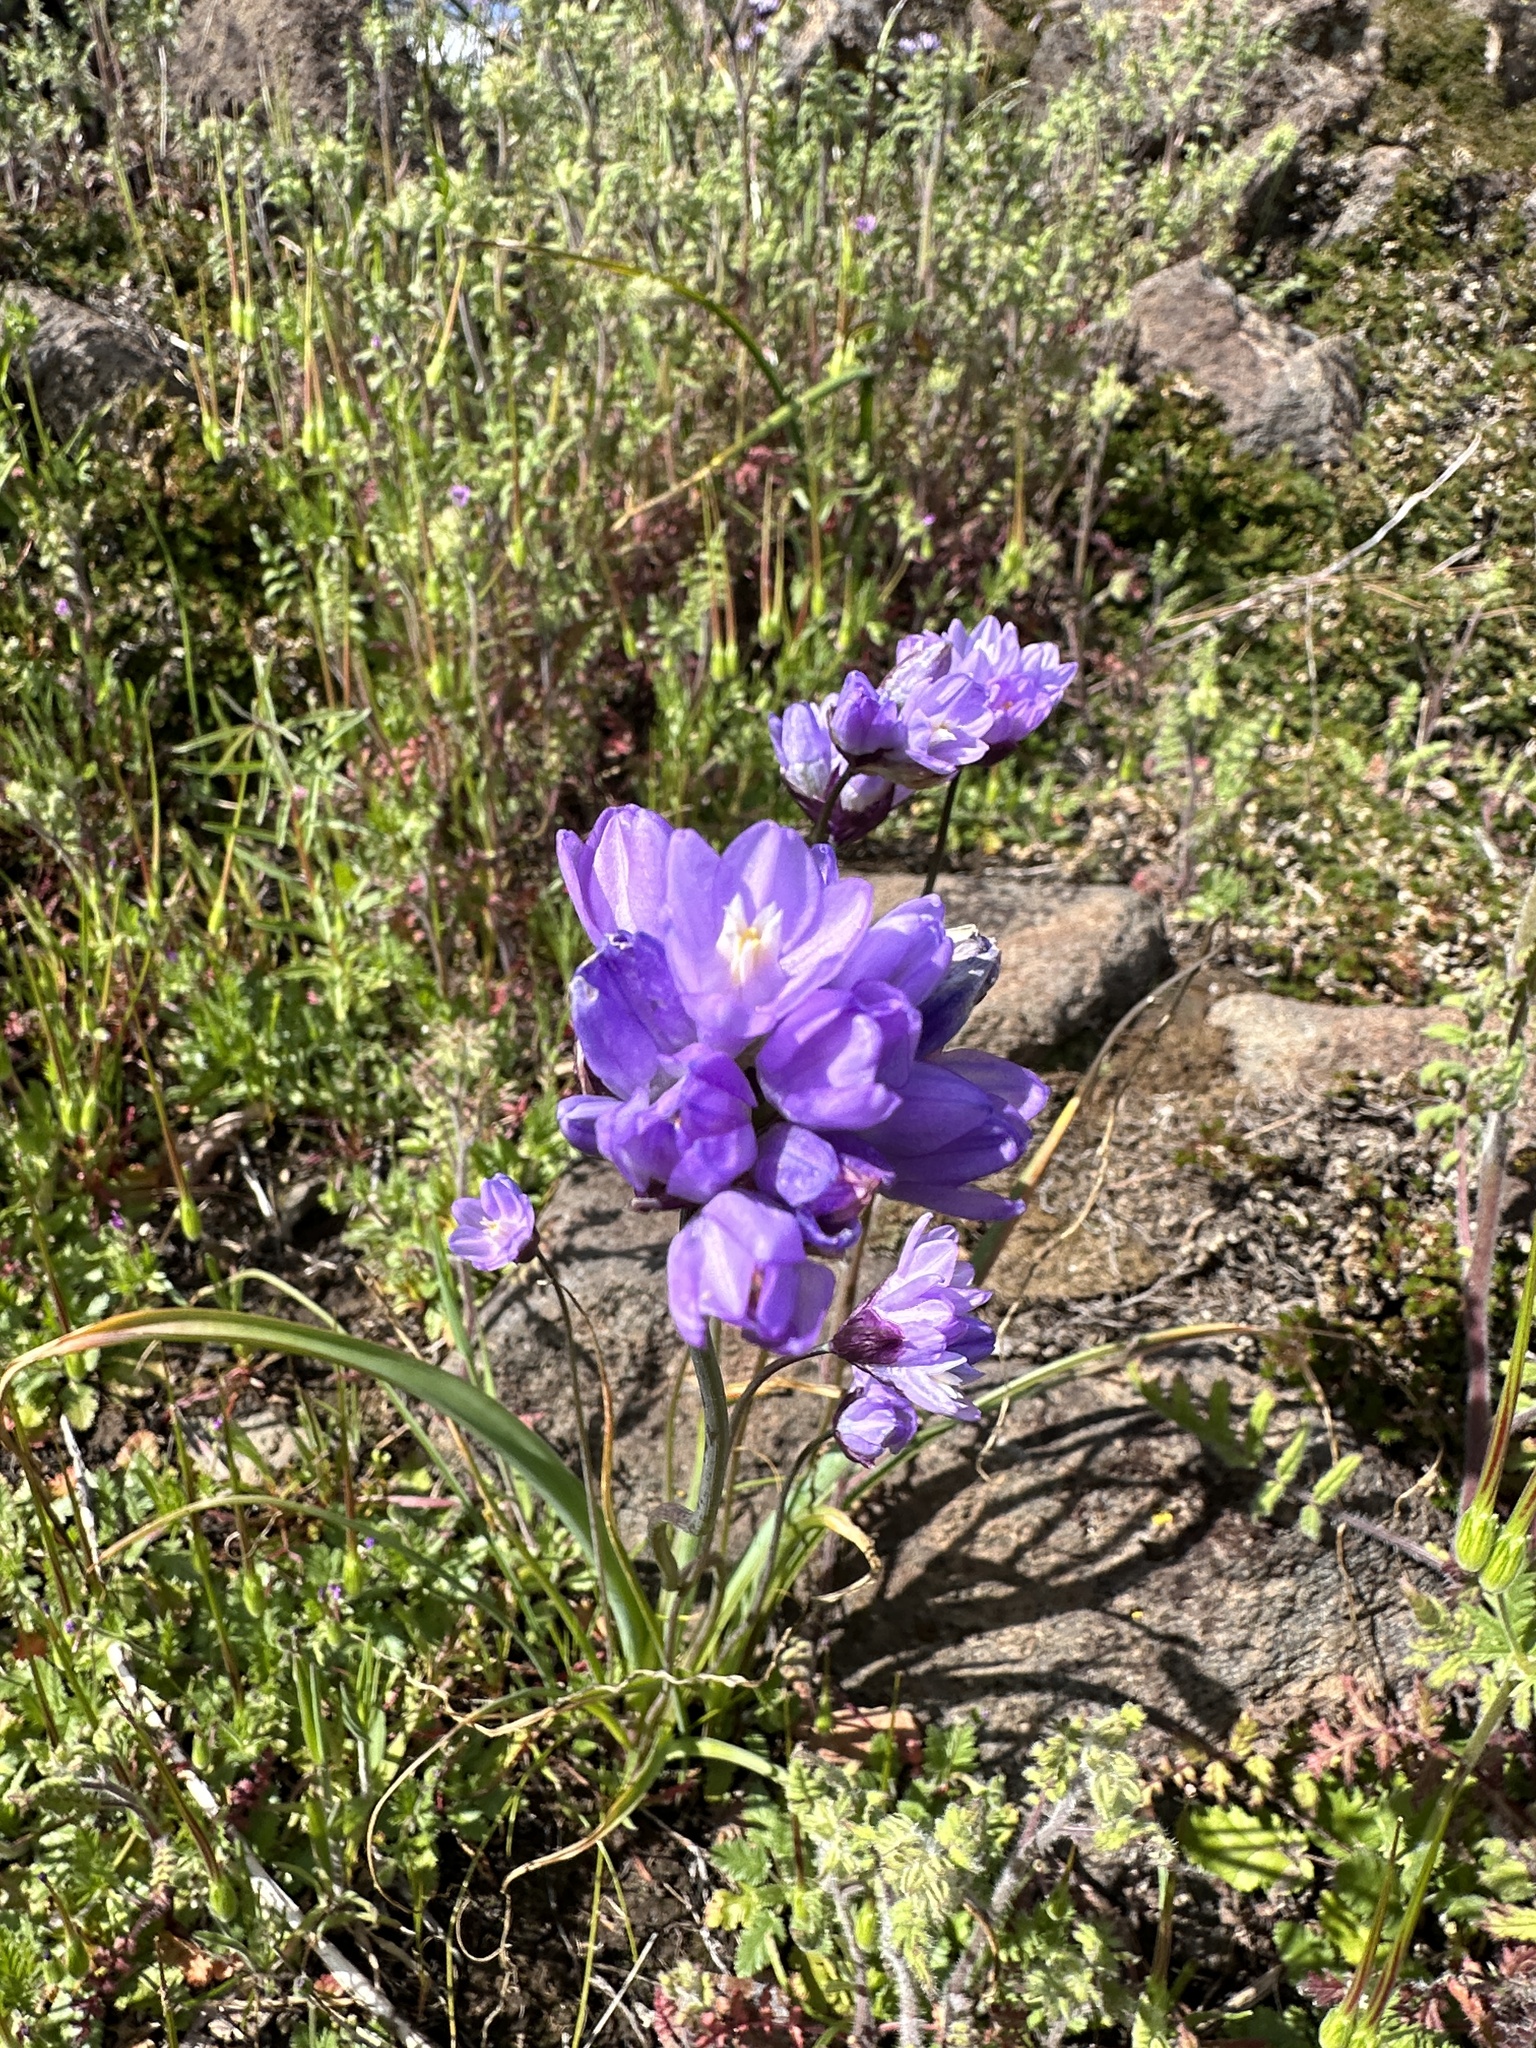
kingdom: Plantae
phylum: Tracheophyta
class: Liliopsida
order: Asparagales
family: Asparagaceae
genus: Dipterostemon
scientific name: Dipterostemon capitatus
